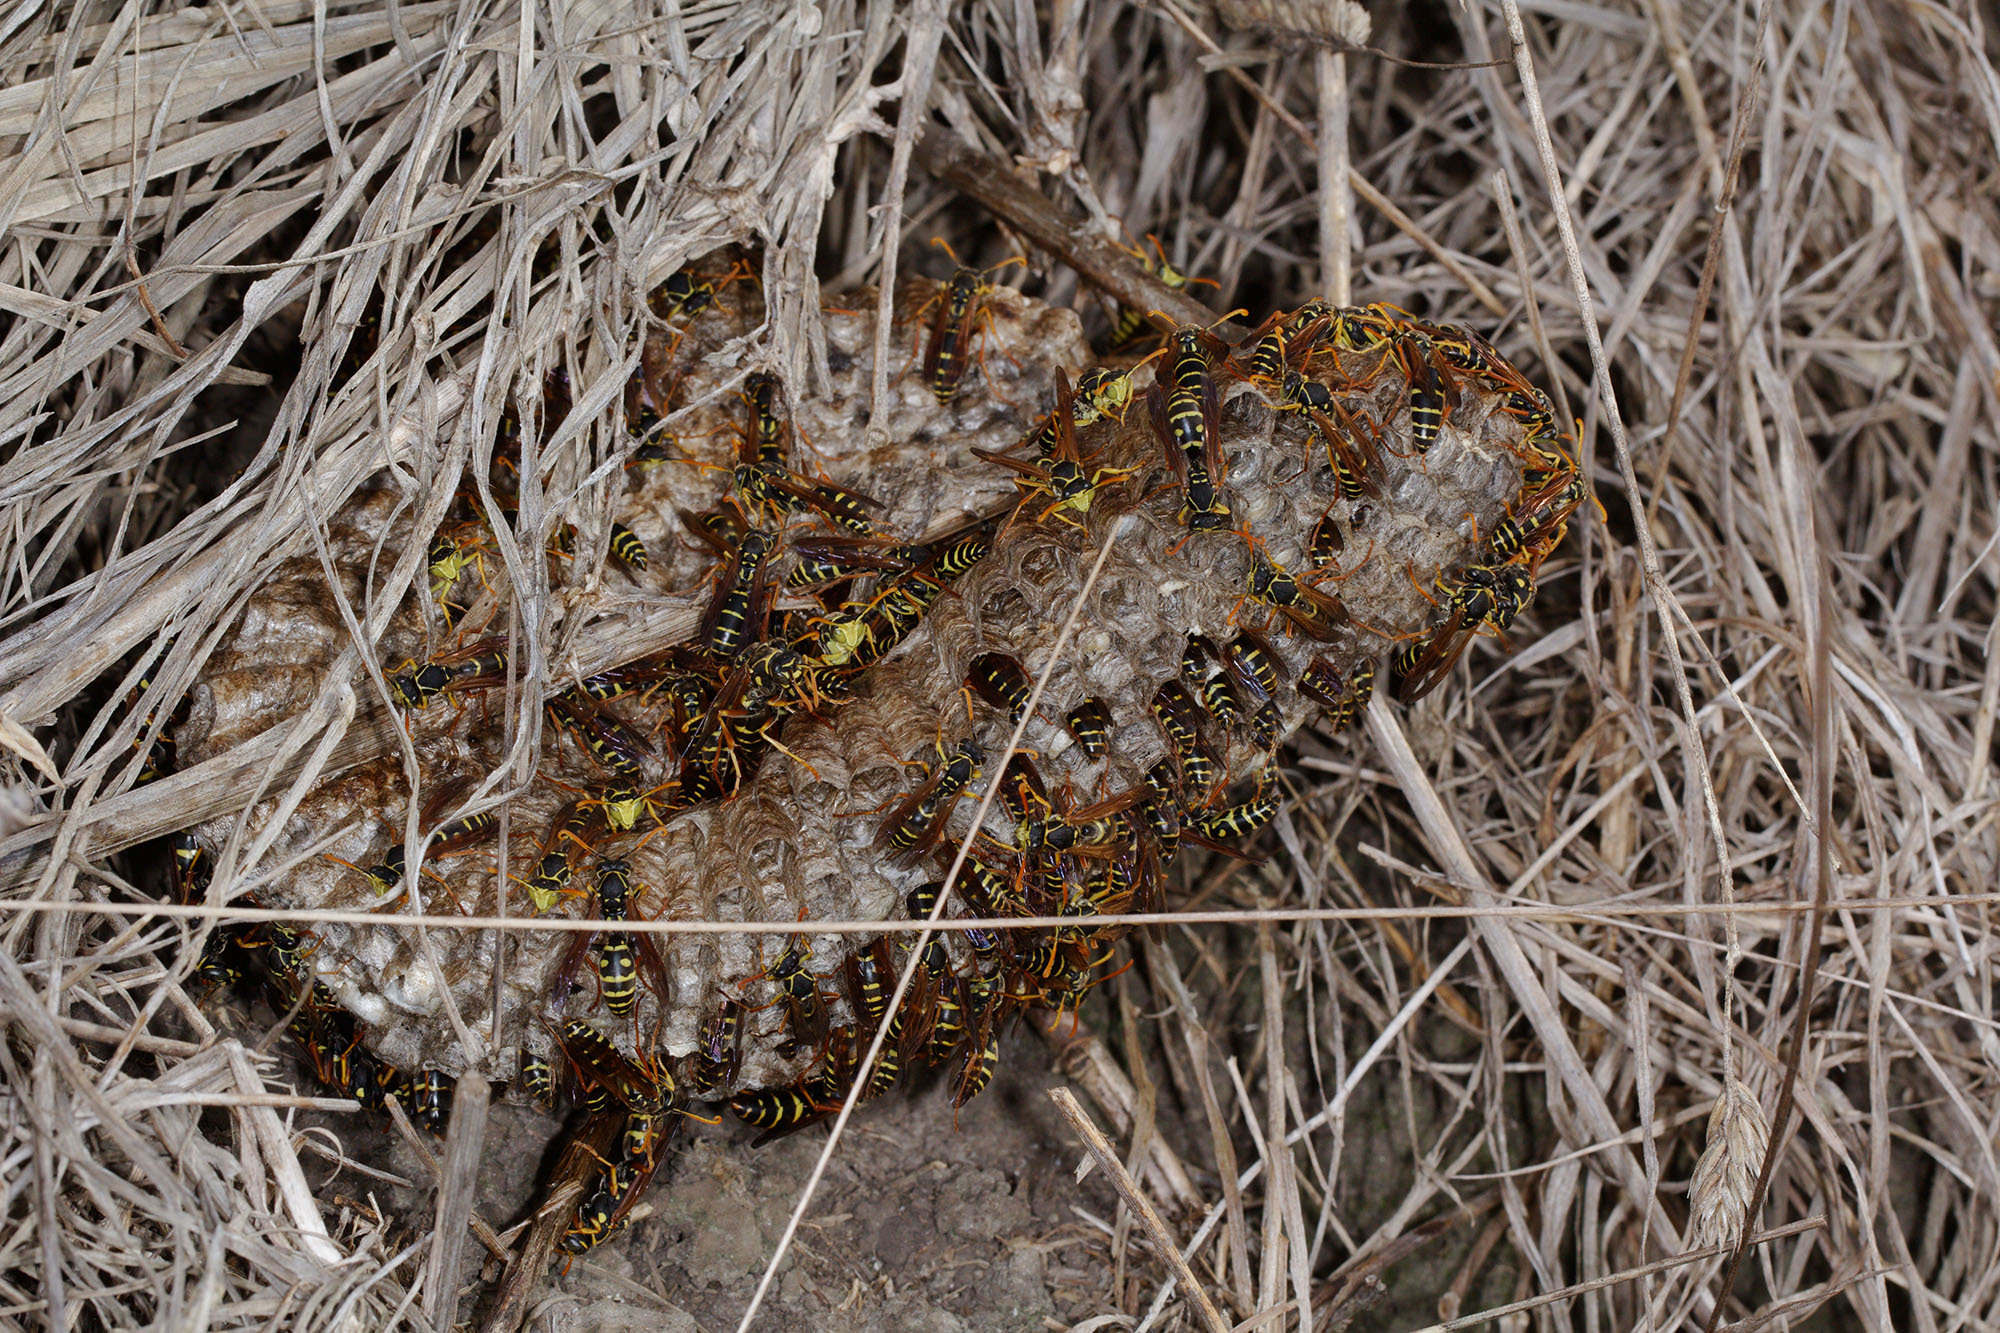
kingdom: Animalia
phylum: Arthropoda
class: Insecta
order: Hymenoptera
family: Eumenidae
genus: Polistes
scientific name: Polistes chinensis
